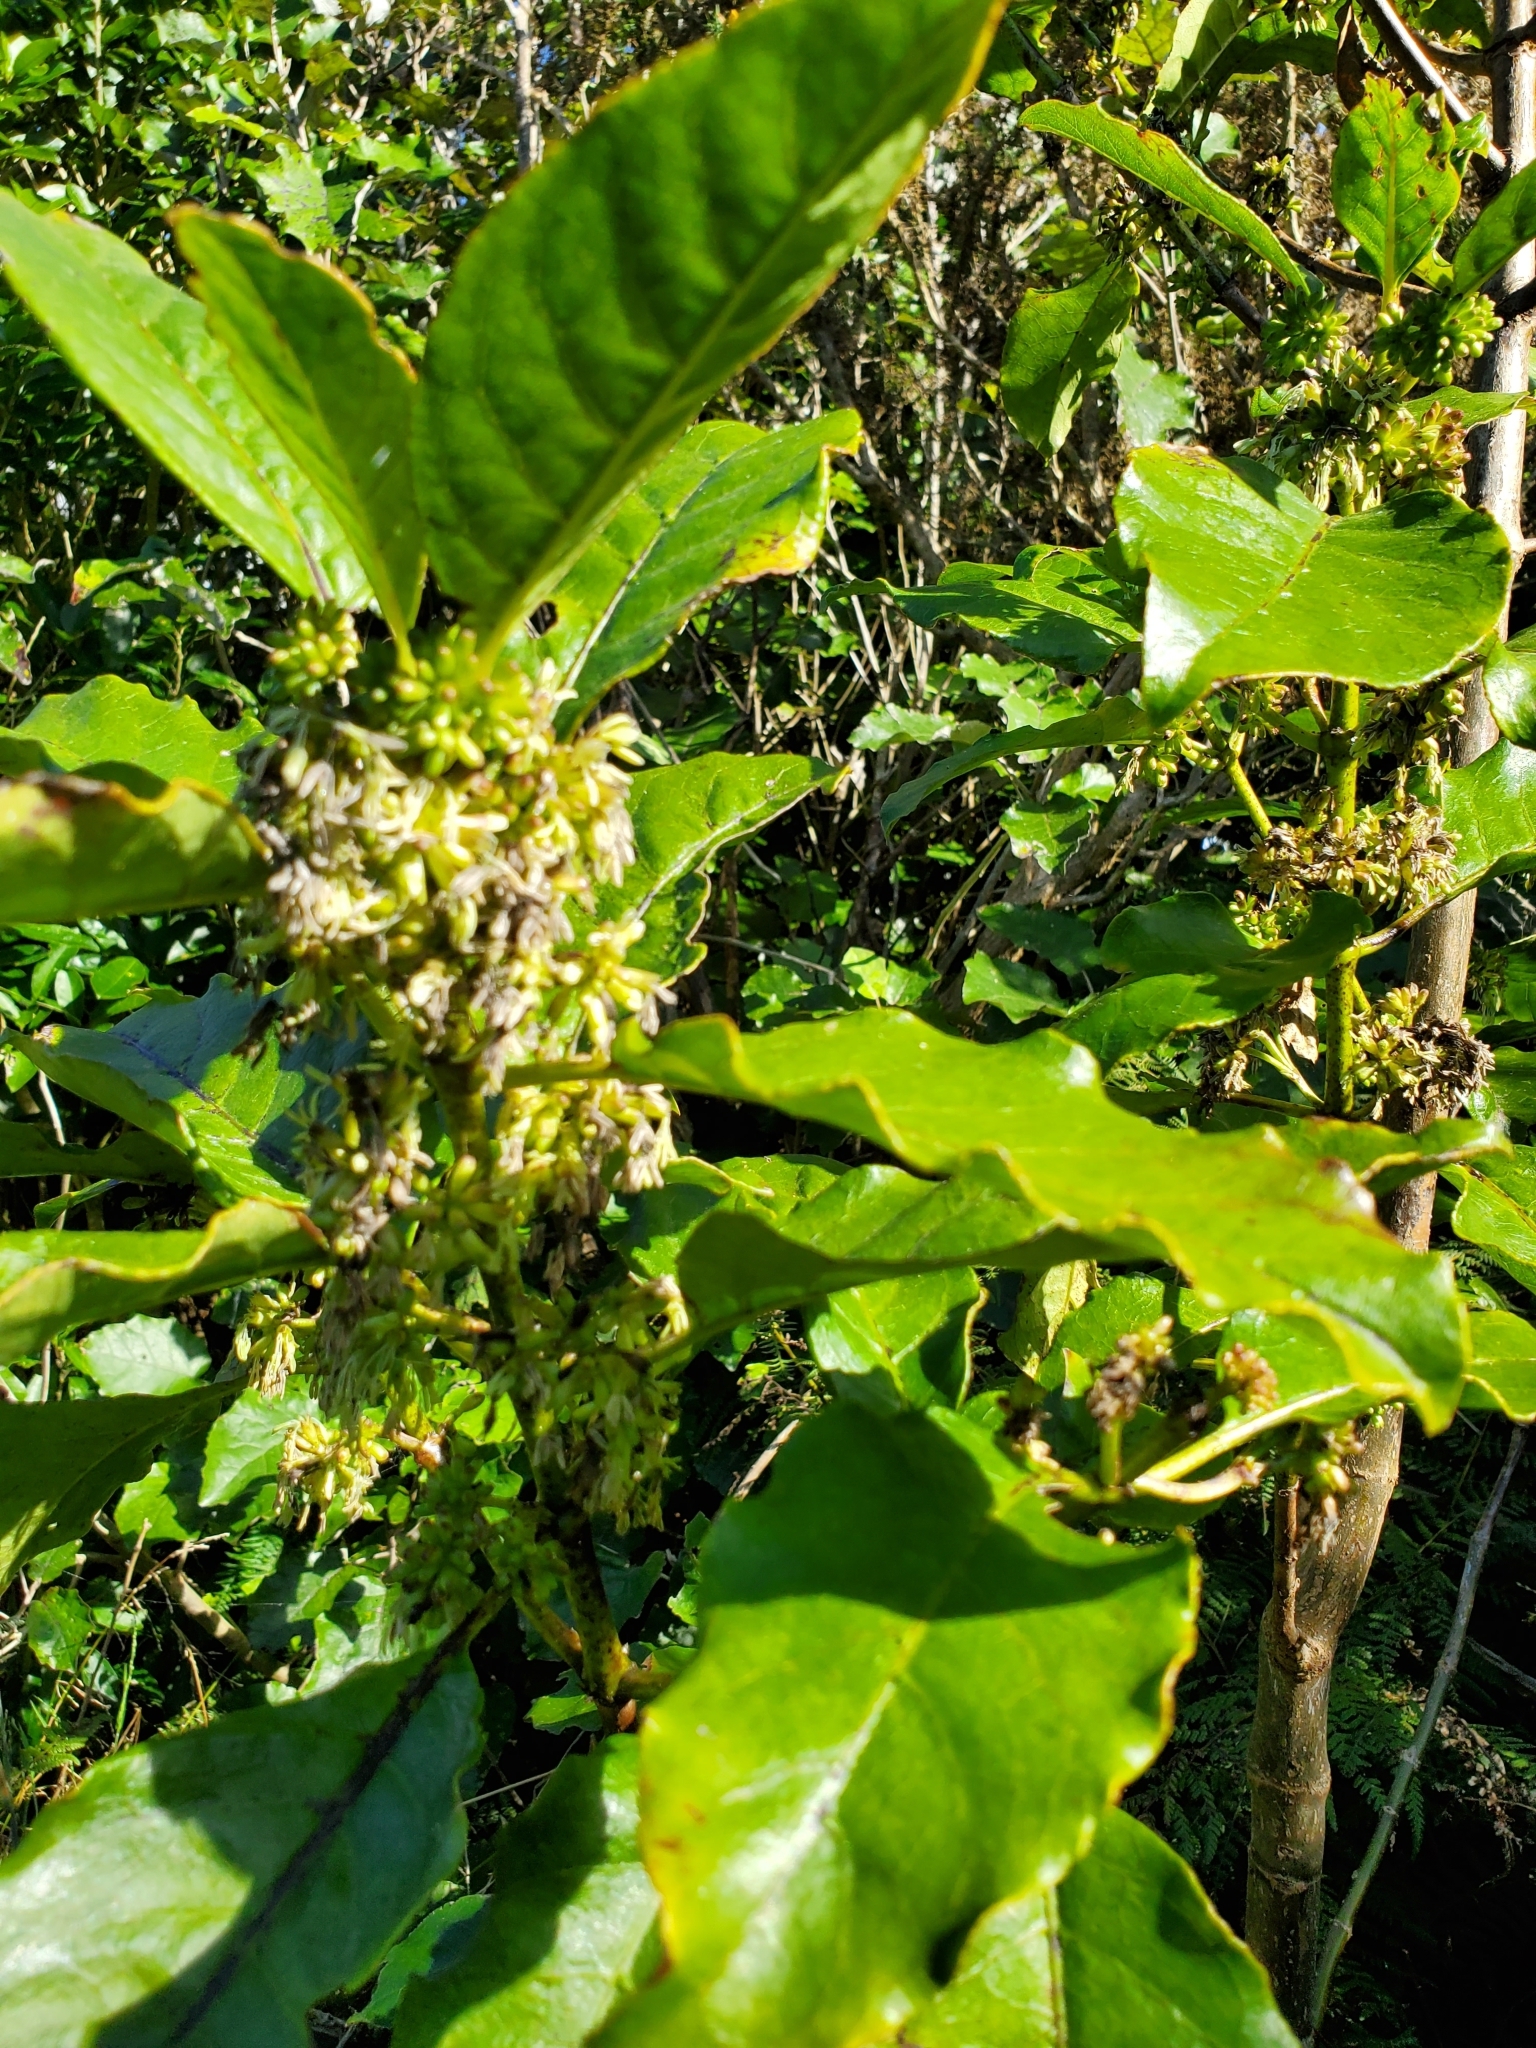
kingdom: Plantae
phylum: Tracheophyta
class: Magnoliopsida
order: Gentianales
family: Rubiaceae
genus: Coprosma
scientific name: Coprosma autumnalis
